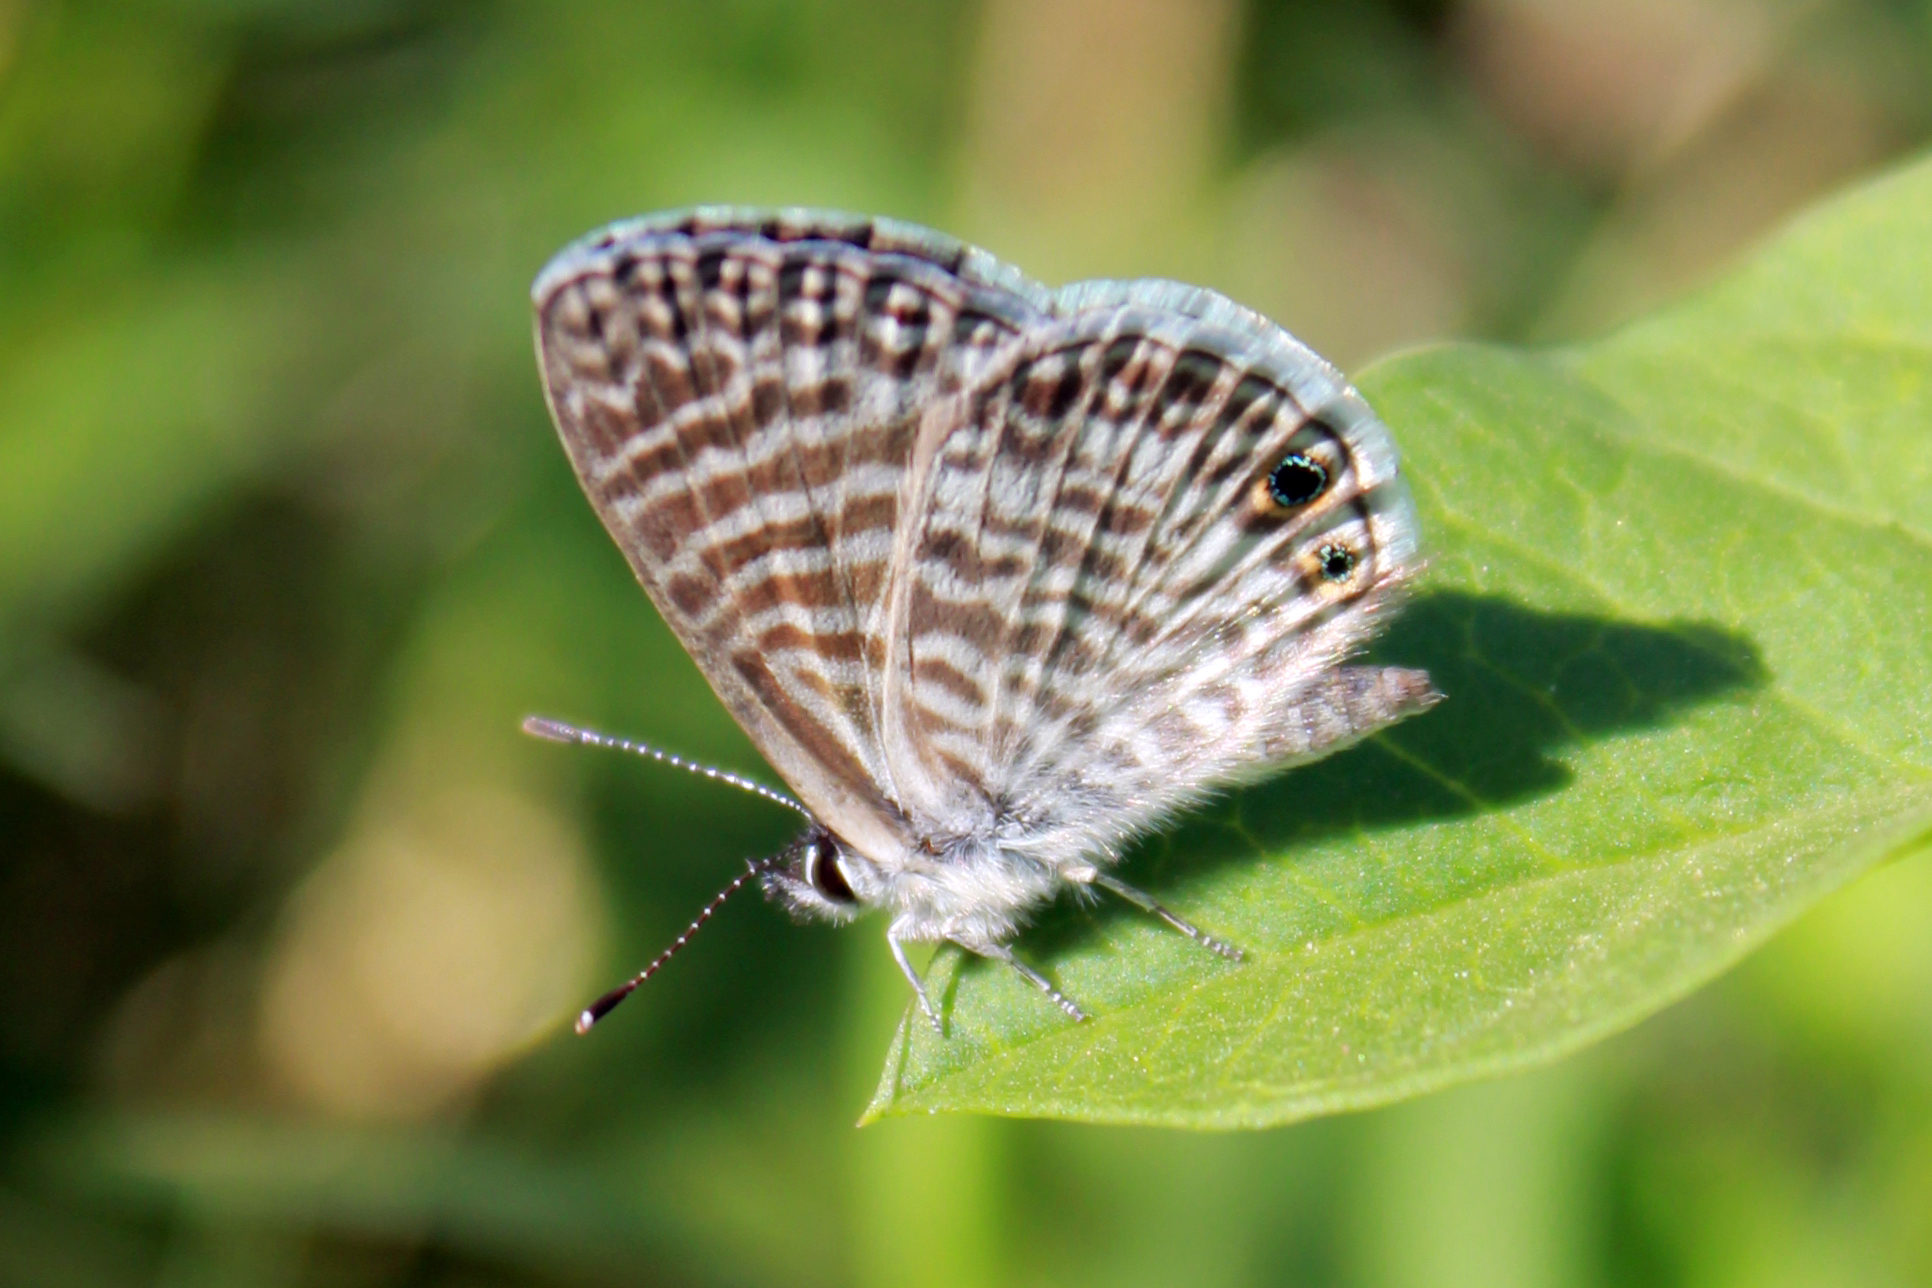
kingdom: Animalia
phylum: Arthropoda
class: Insecta
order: Lepidoptera
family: Lycaenidae
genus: Leptotes
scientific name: Leptotes marina
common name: Marine blue
